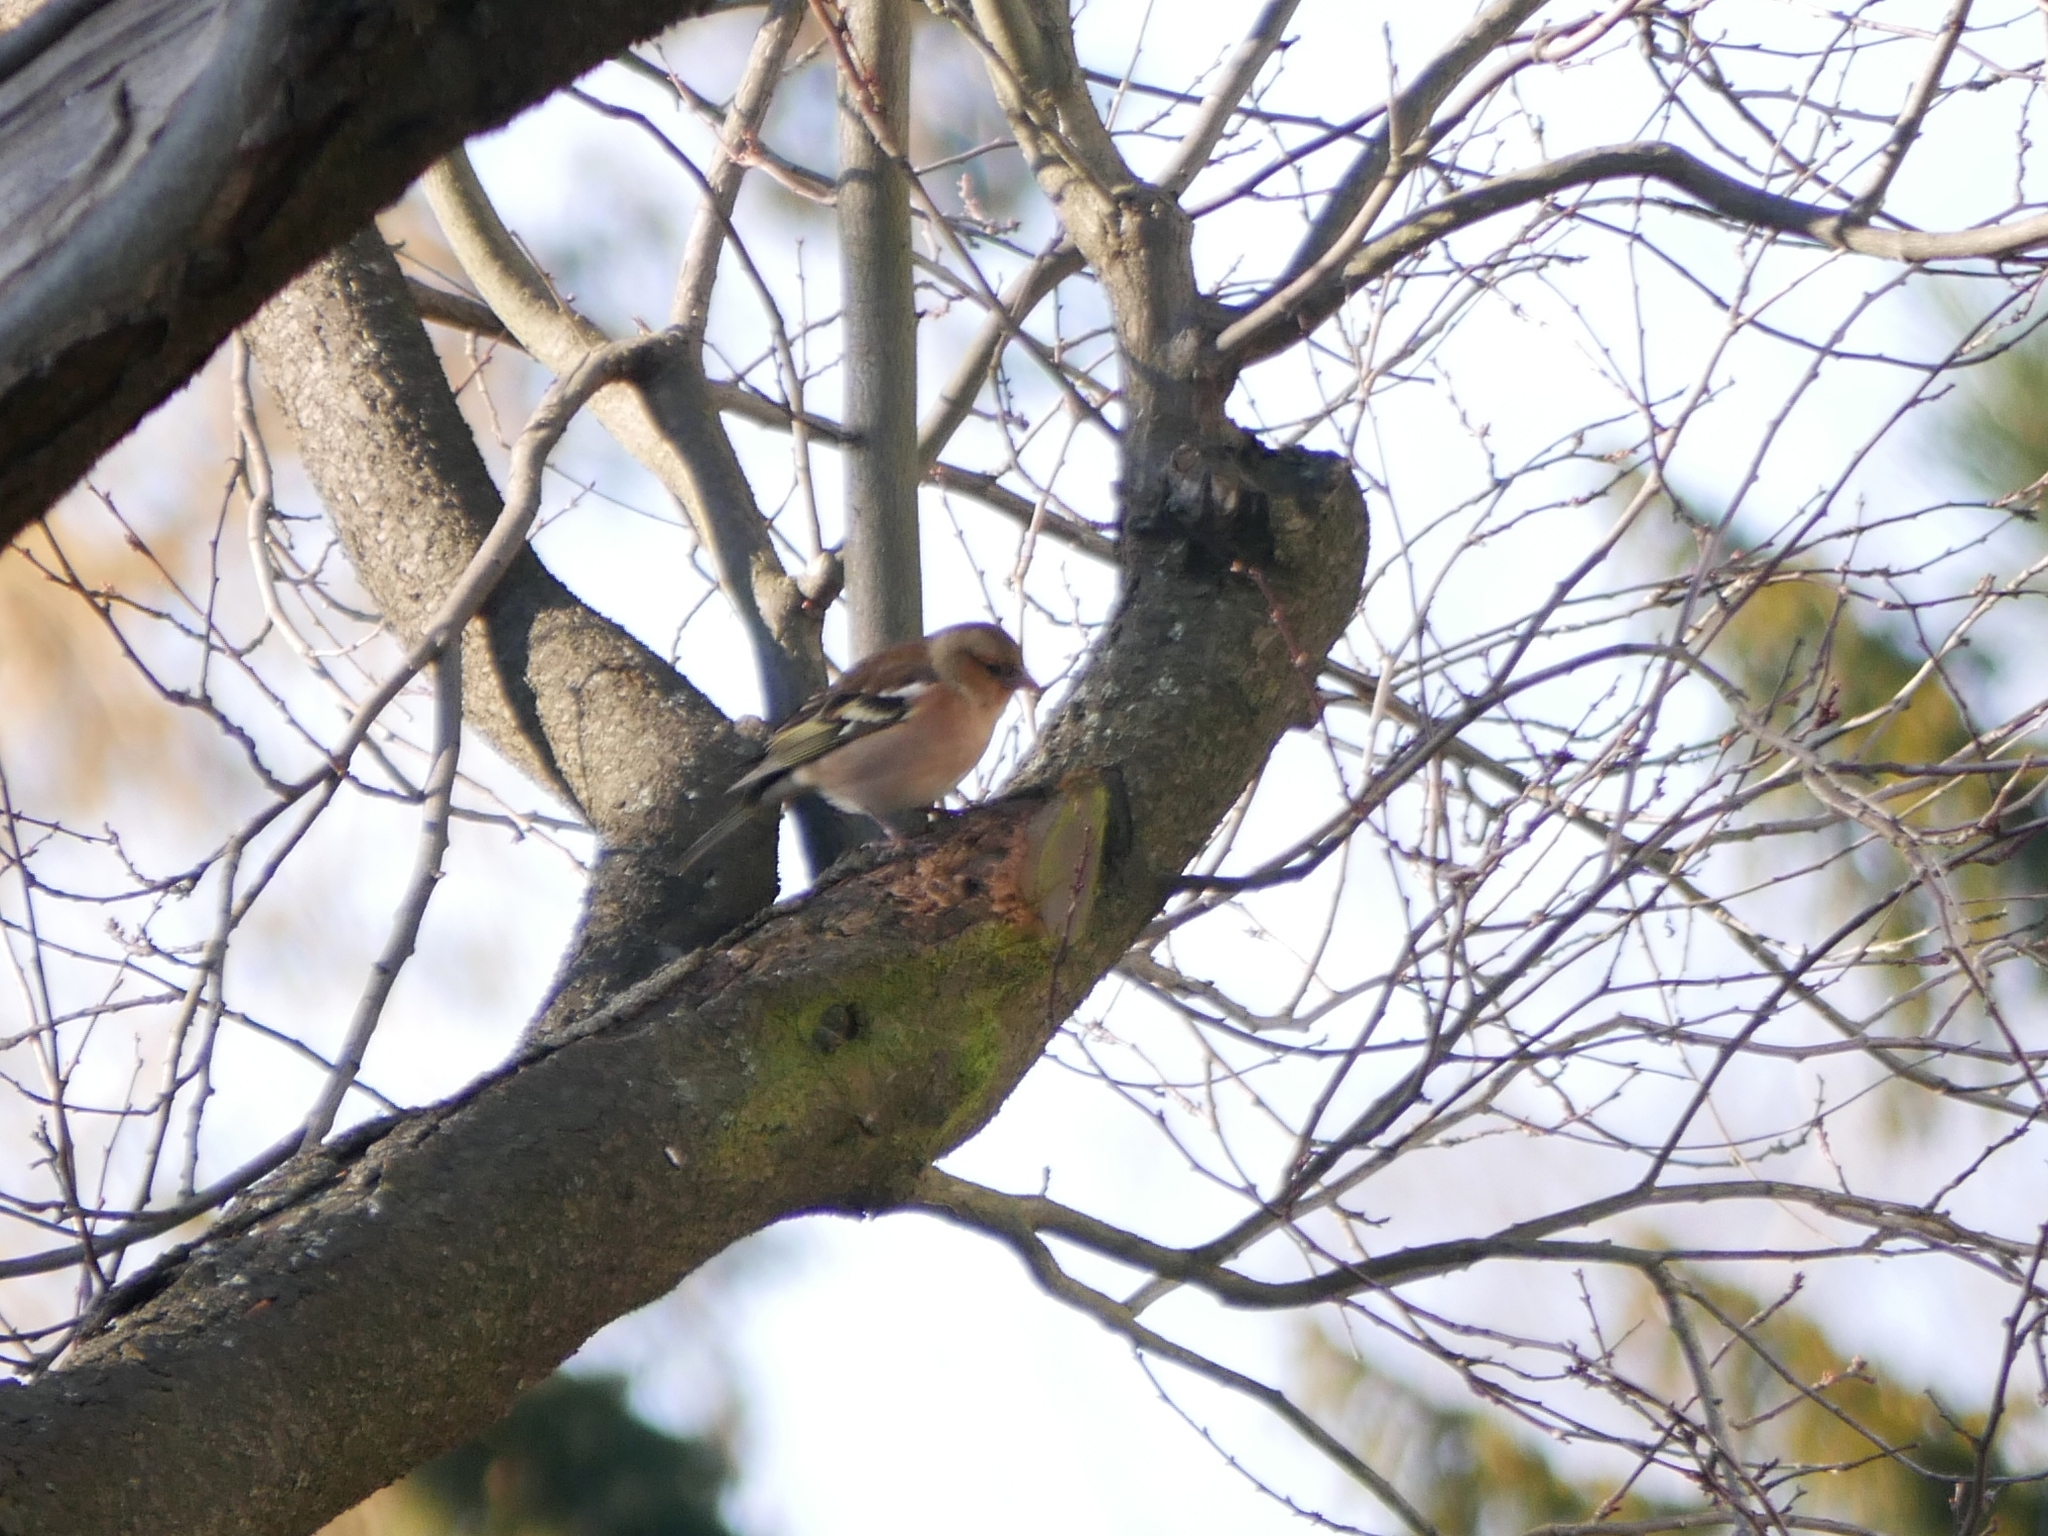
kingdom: Animalia
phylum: Chordata
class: Aves
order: Passeriformes
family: Fringillidae
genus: Fringilla
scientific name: Fringilla coelebs
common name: Common chaffinch
